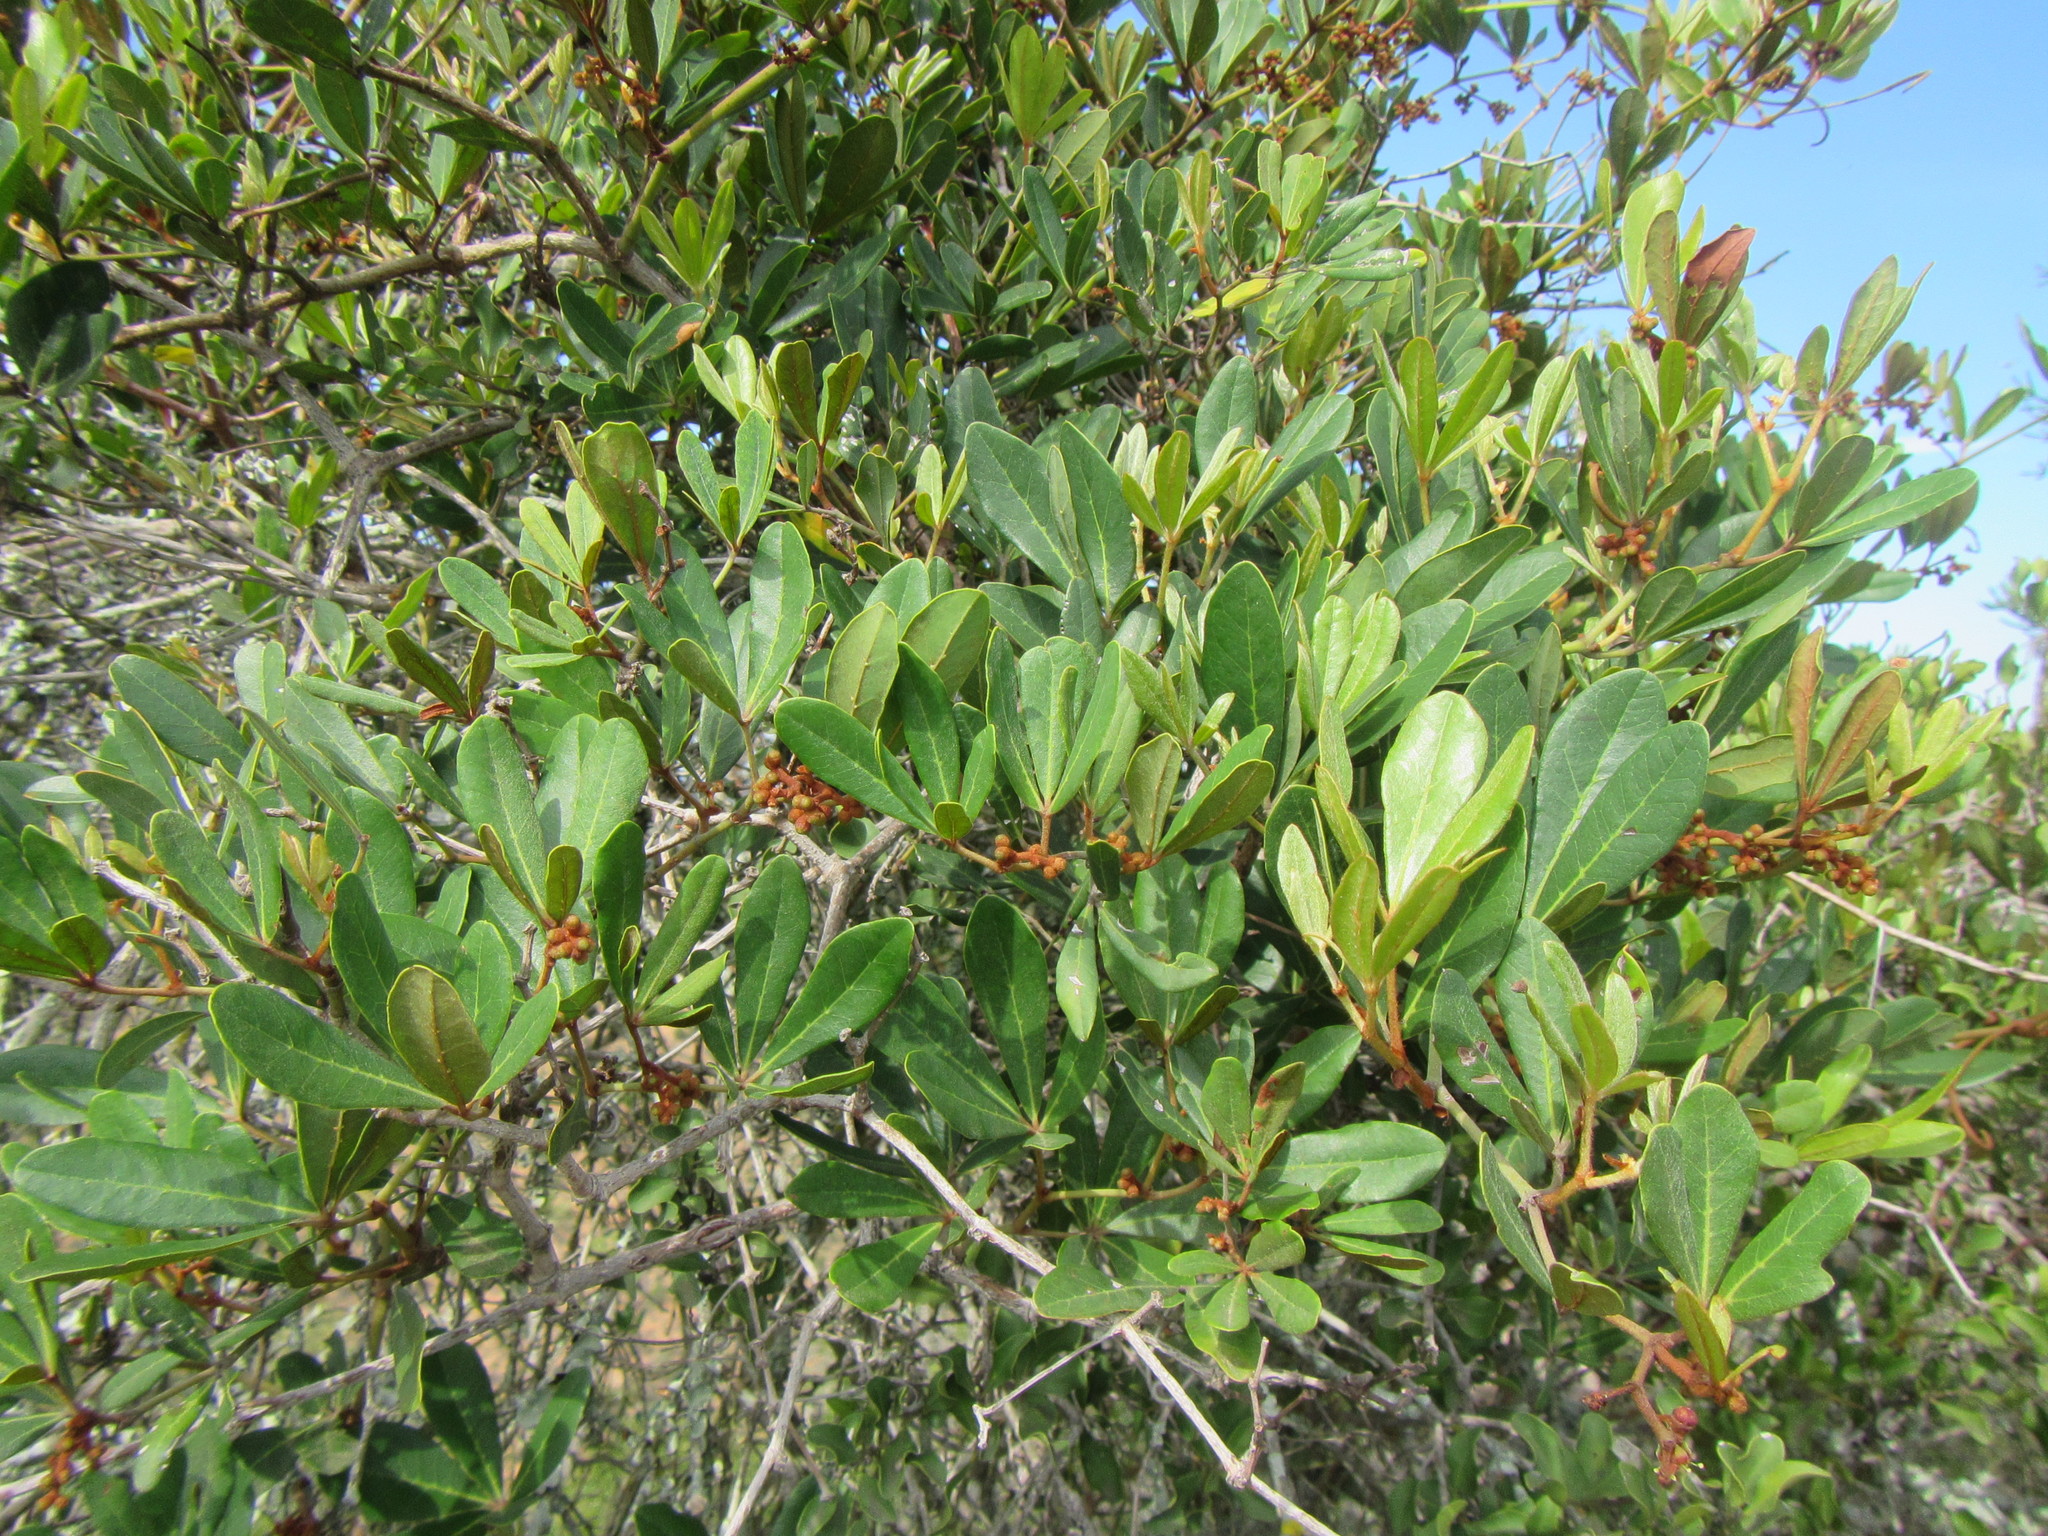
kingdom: Plantae
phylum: Tracheophyta
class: Magnoliopsida
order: Vitales
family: Vitaceae
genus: Rhoicissus
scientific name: Rhoicissus digitata
